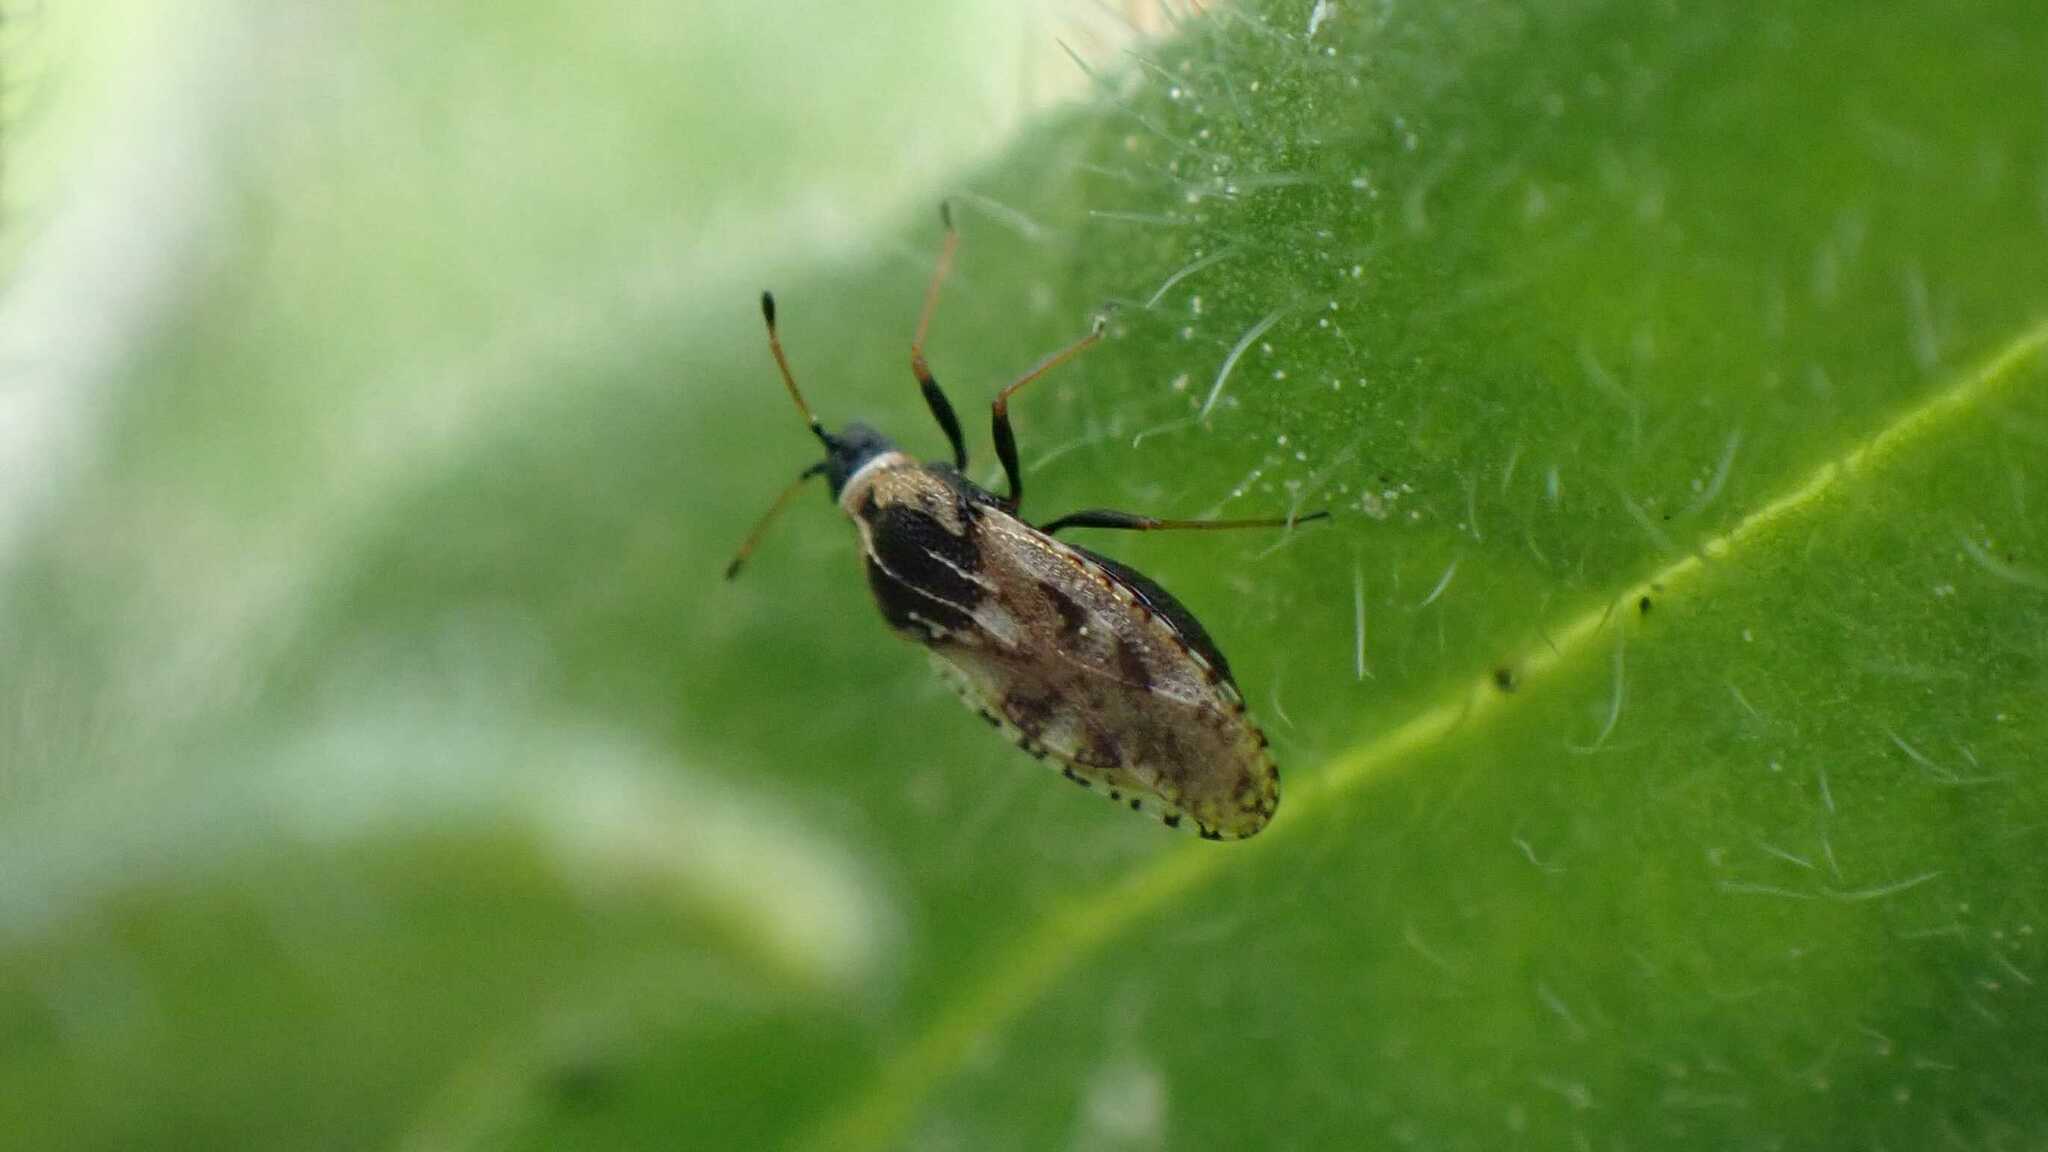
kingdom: Animalia
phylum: Arthropoda
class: Insecta
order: Hemiptera
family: Tingidae
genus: Dictyla
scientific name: Dictyla echii
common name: Lace bug
